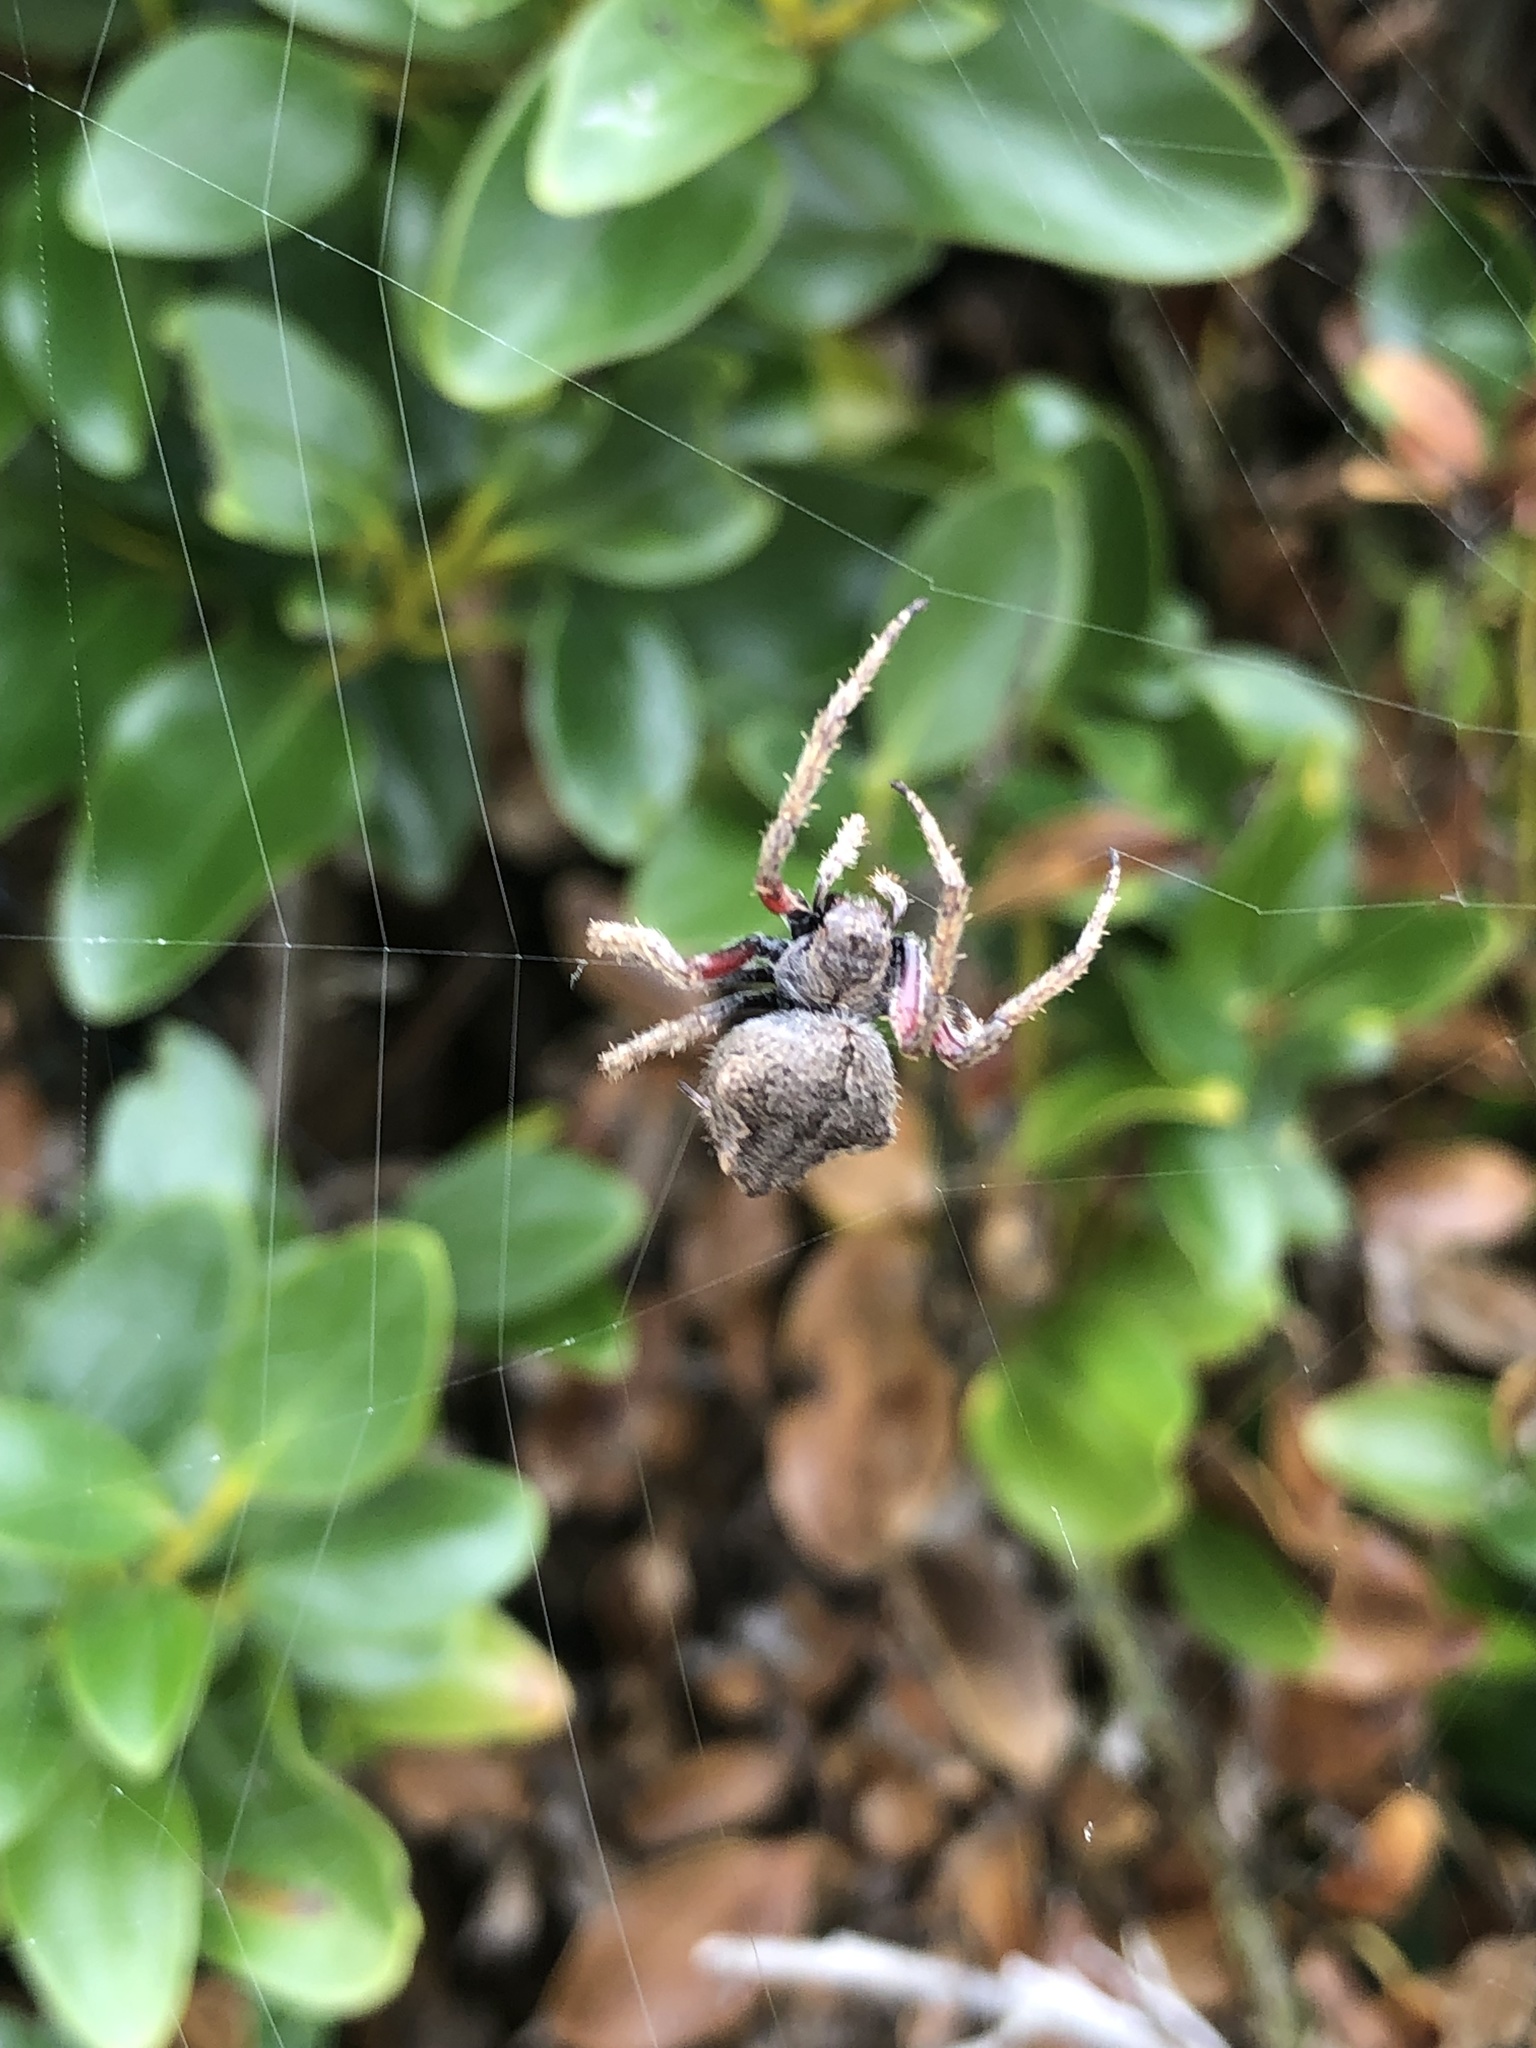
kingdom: Animalia
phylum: Arthropoda
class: Arachnida
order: Araneae
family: Araneidae
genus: Eriophora
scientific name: Eriophora pustulosa
